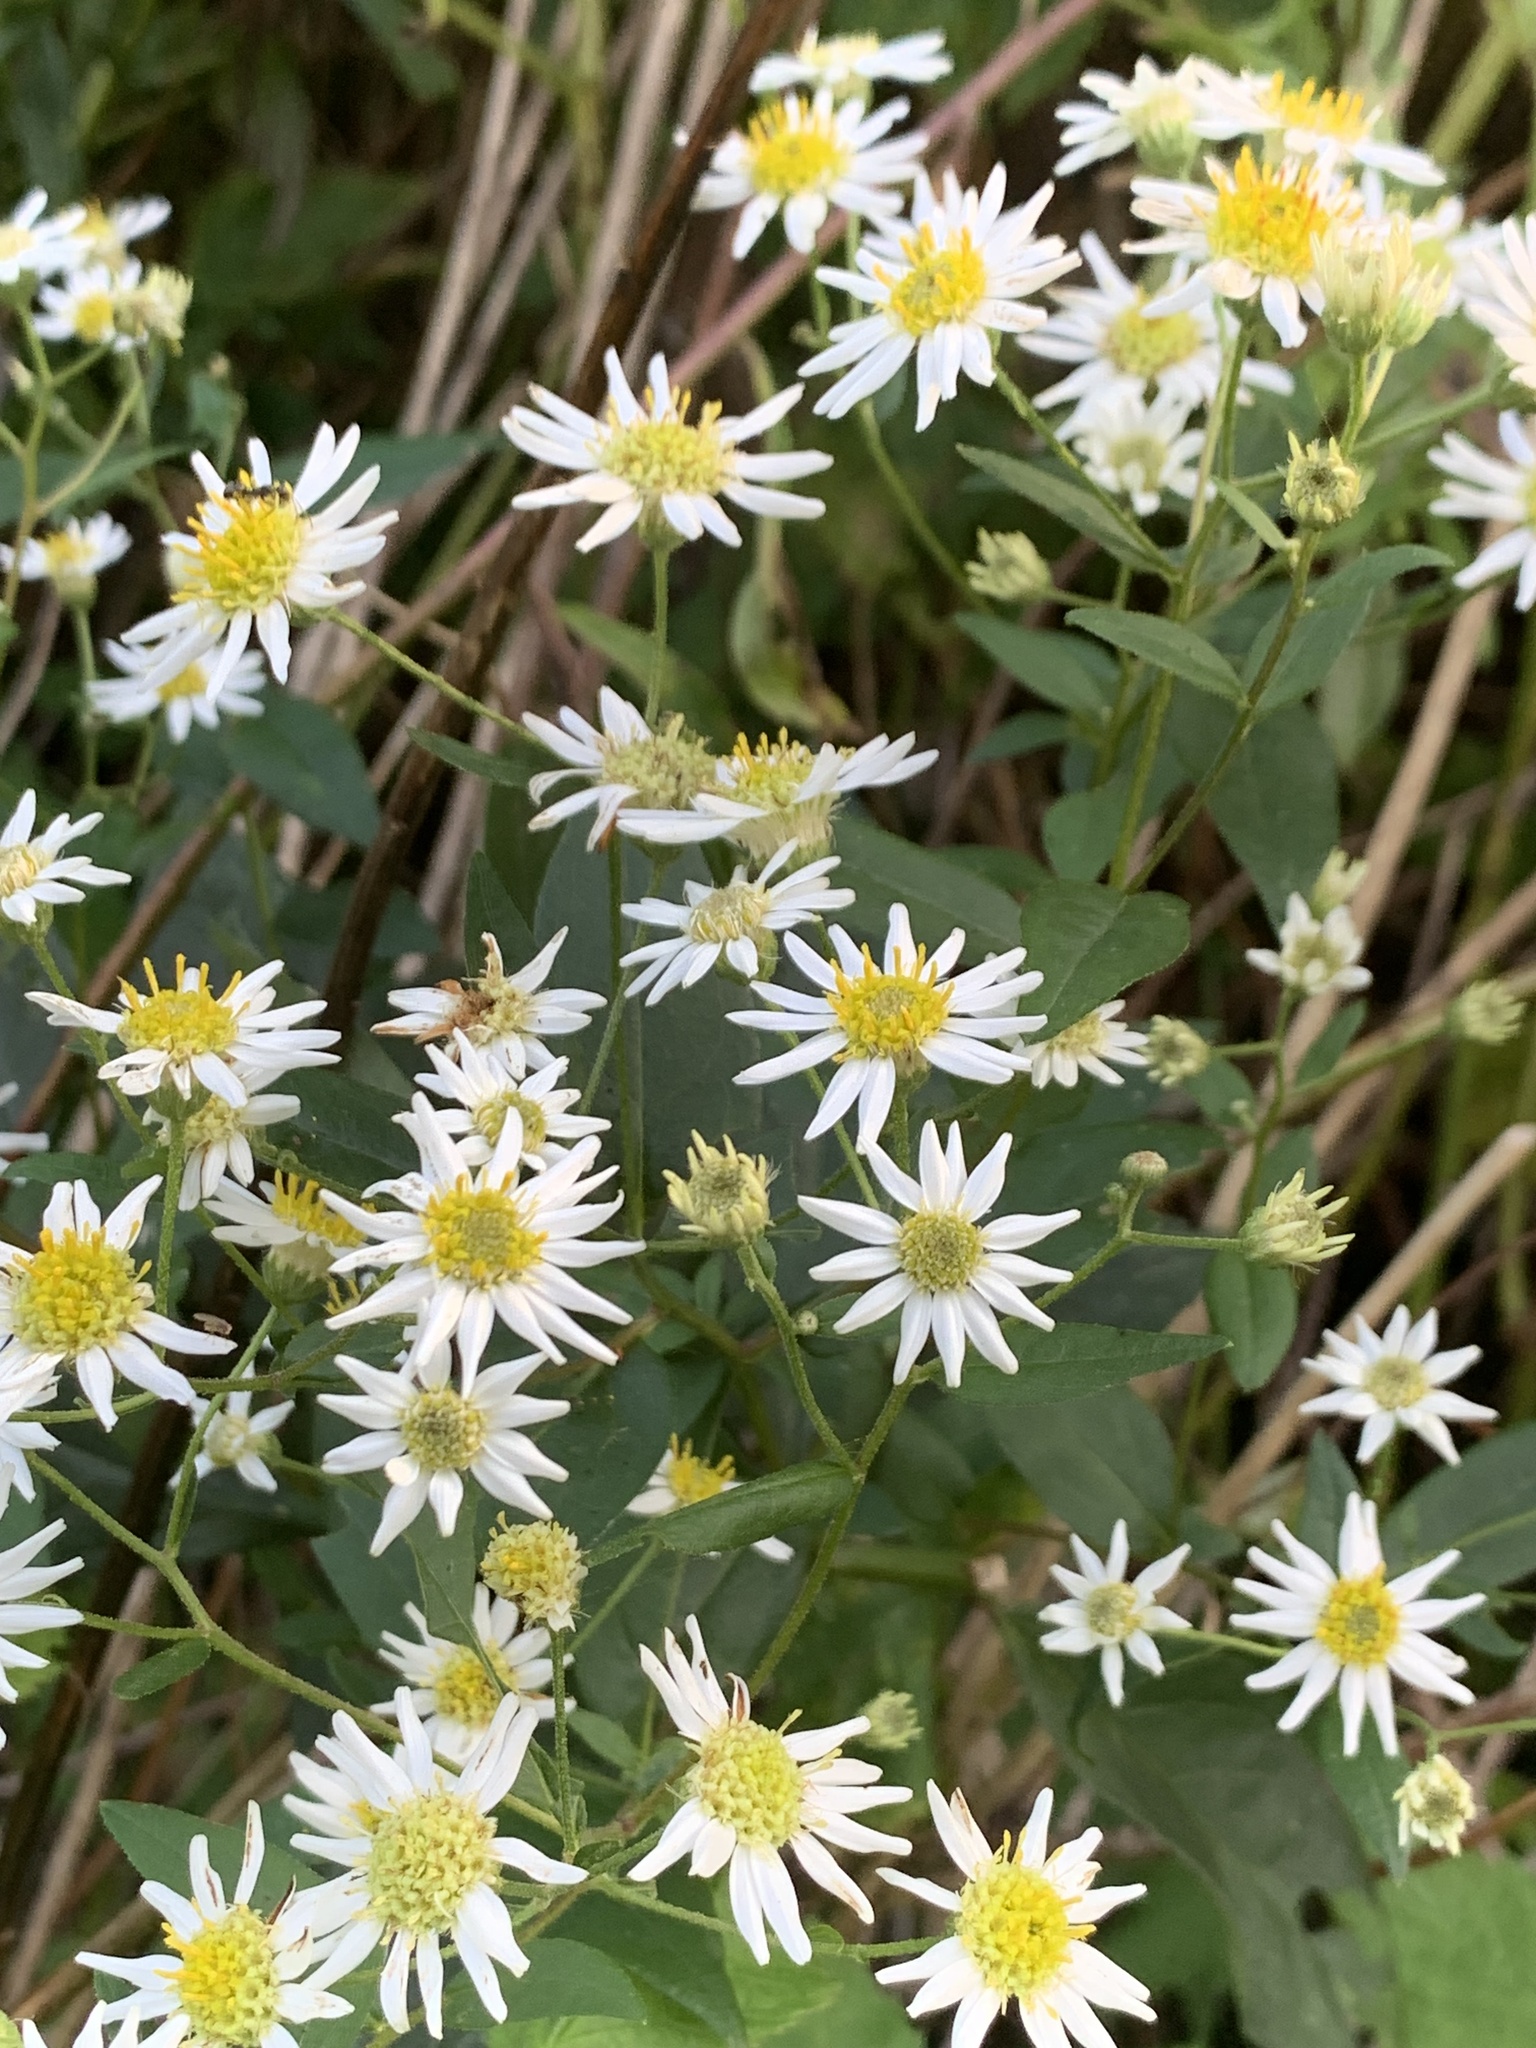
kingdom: Plantae
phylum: Tracheophyta
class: Magnoliopsida
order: Asterales
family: Asteraceae
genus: Doellingeria
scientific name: Doellingeria umbellata
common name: Flat-top white aster
